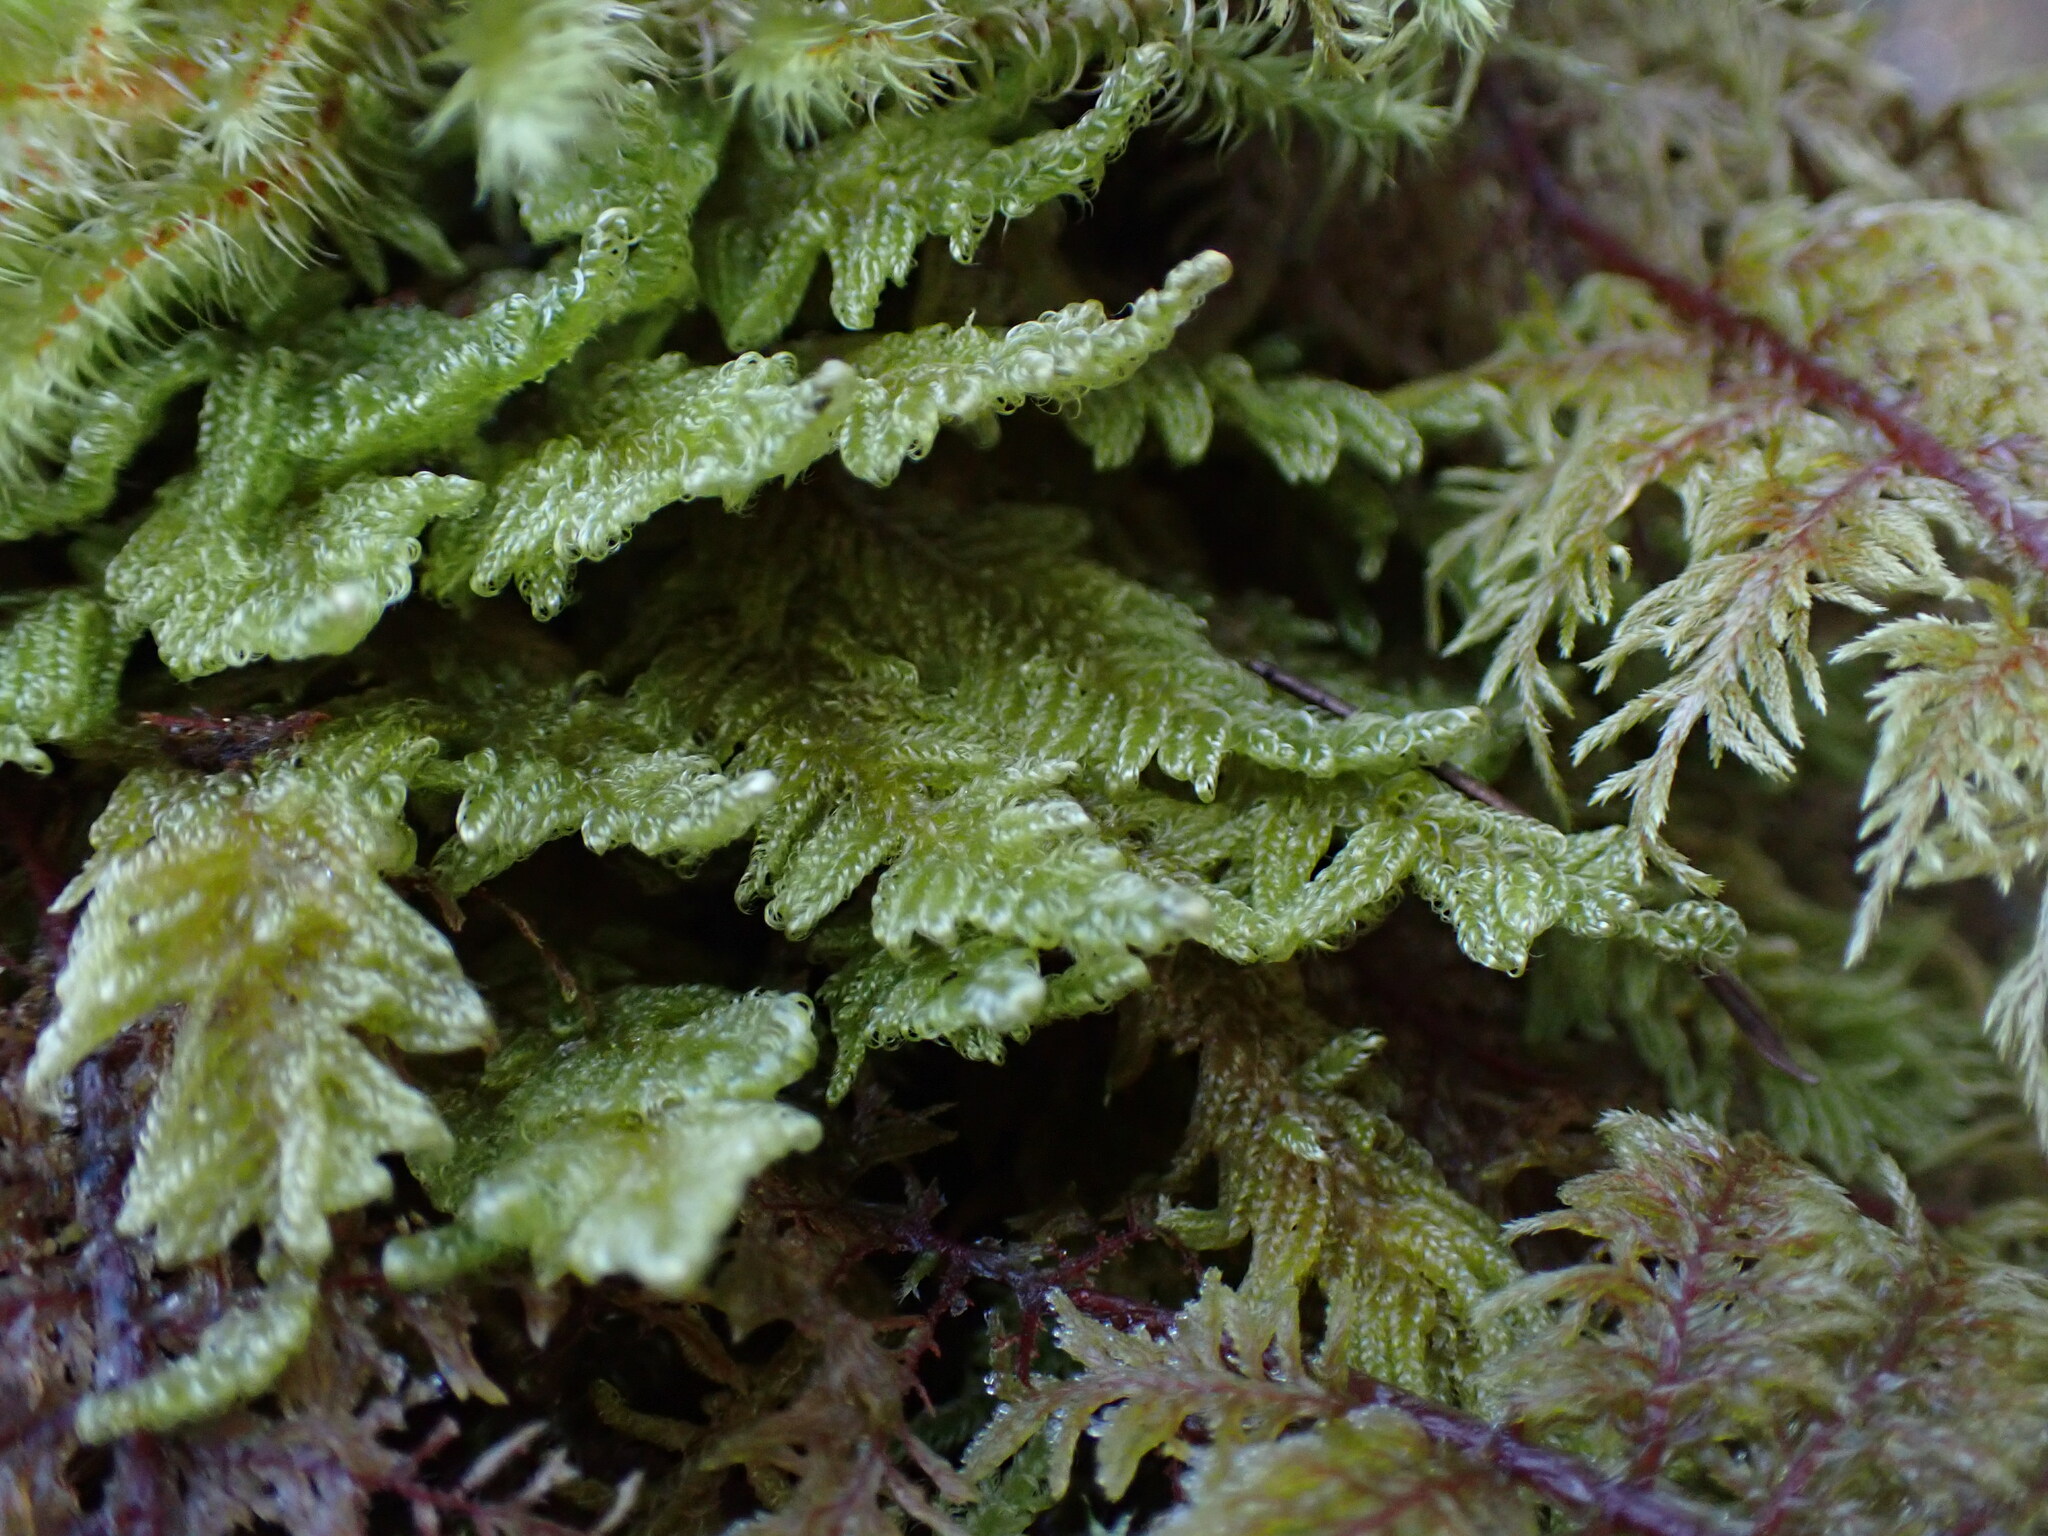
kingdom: Plantae
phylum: Bryophyta
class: Bryopsida
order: Hypnales
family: Stereodontaceae
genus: Stereodon
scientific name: Stereodon subimponens
